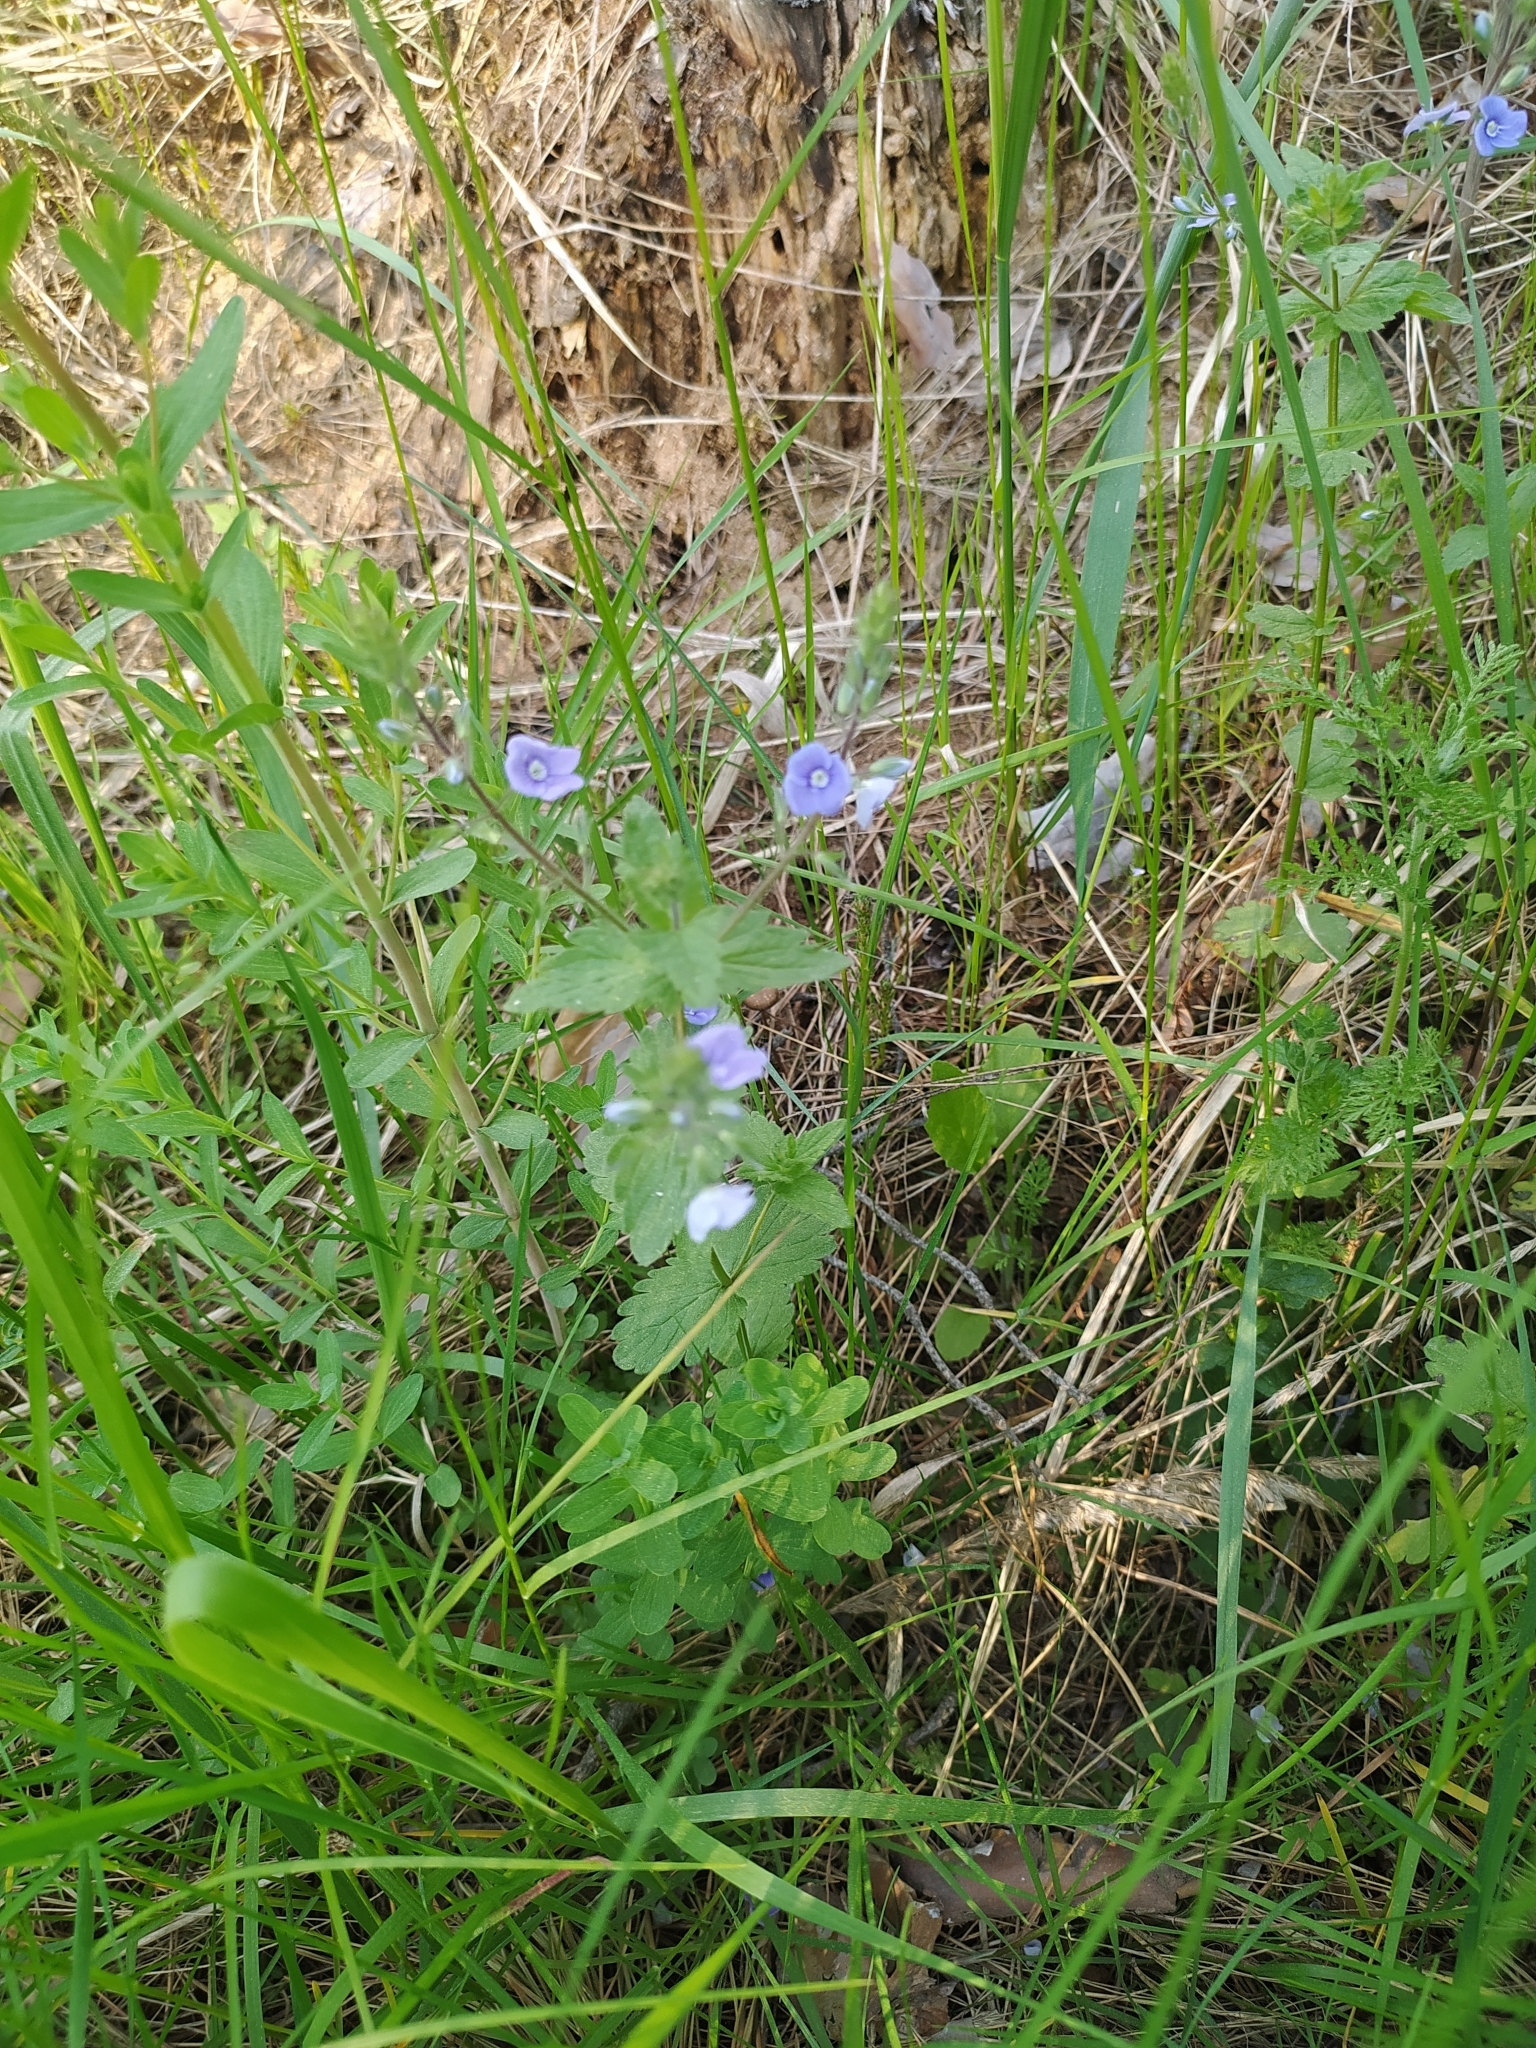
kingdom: Plantae
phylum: Tracheophyta
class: Magnoliopsida
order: Lamiales
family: Plantaginaceae
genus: Veronica
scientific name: Veronica chamaedrys
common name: Germander speedwell
